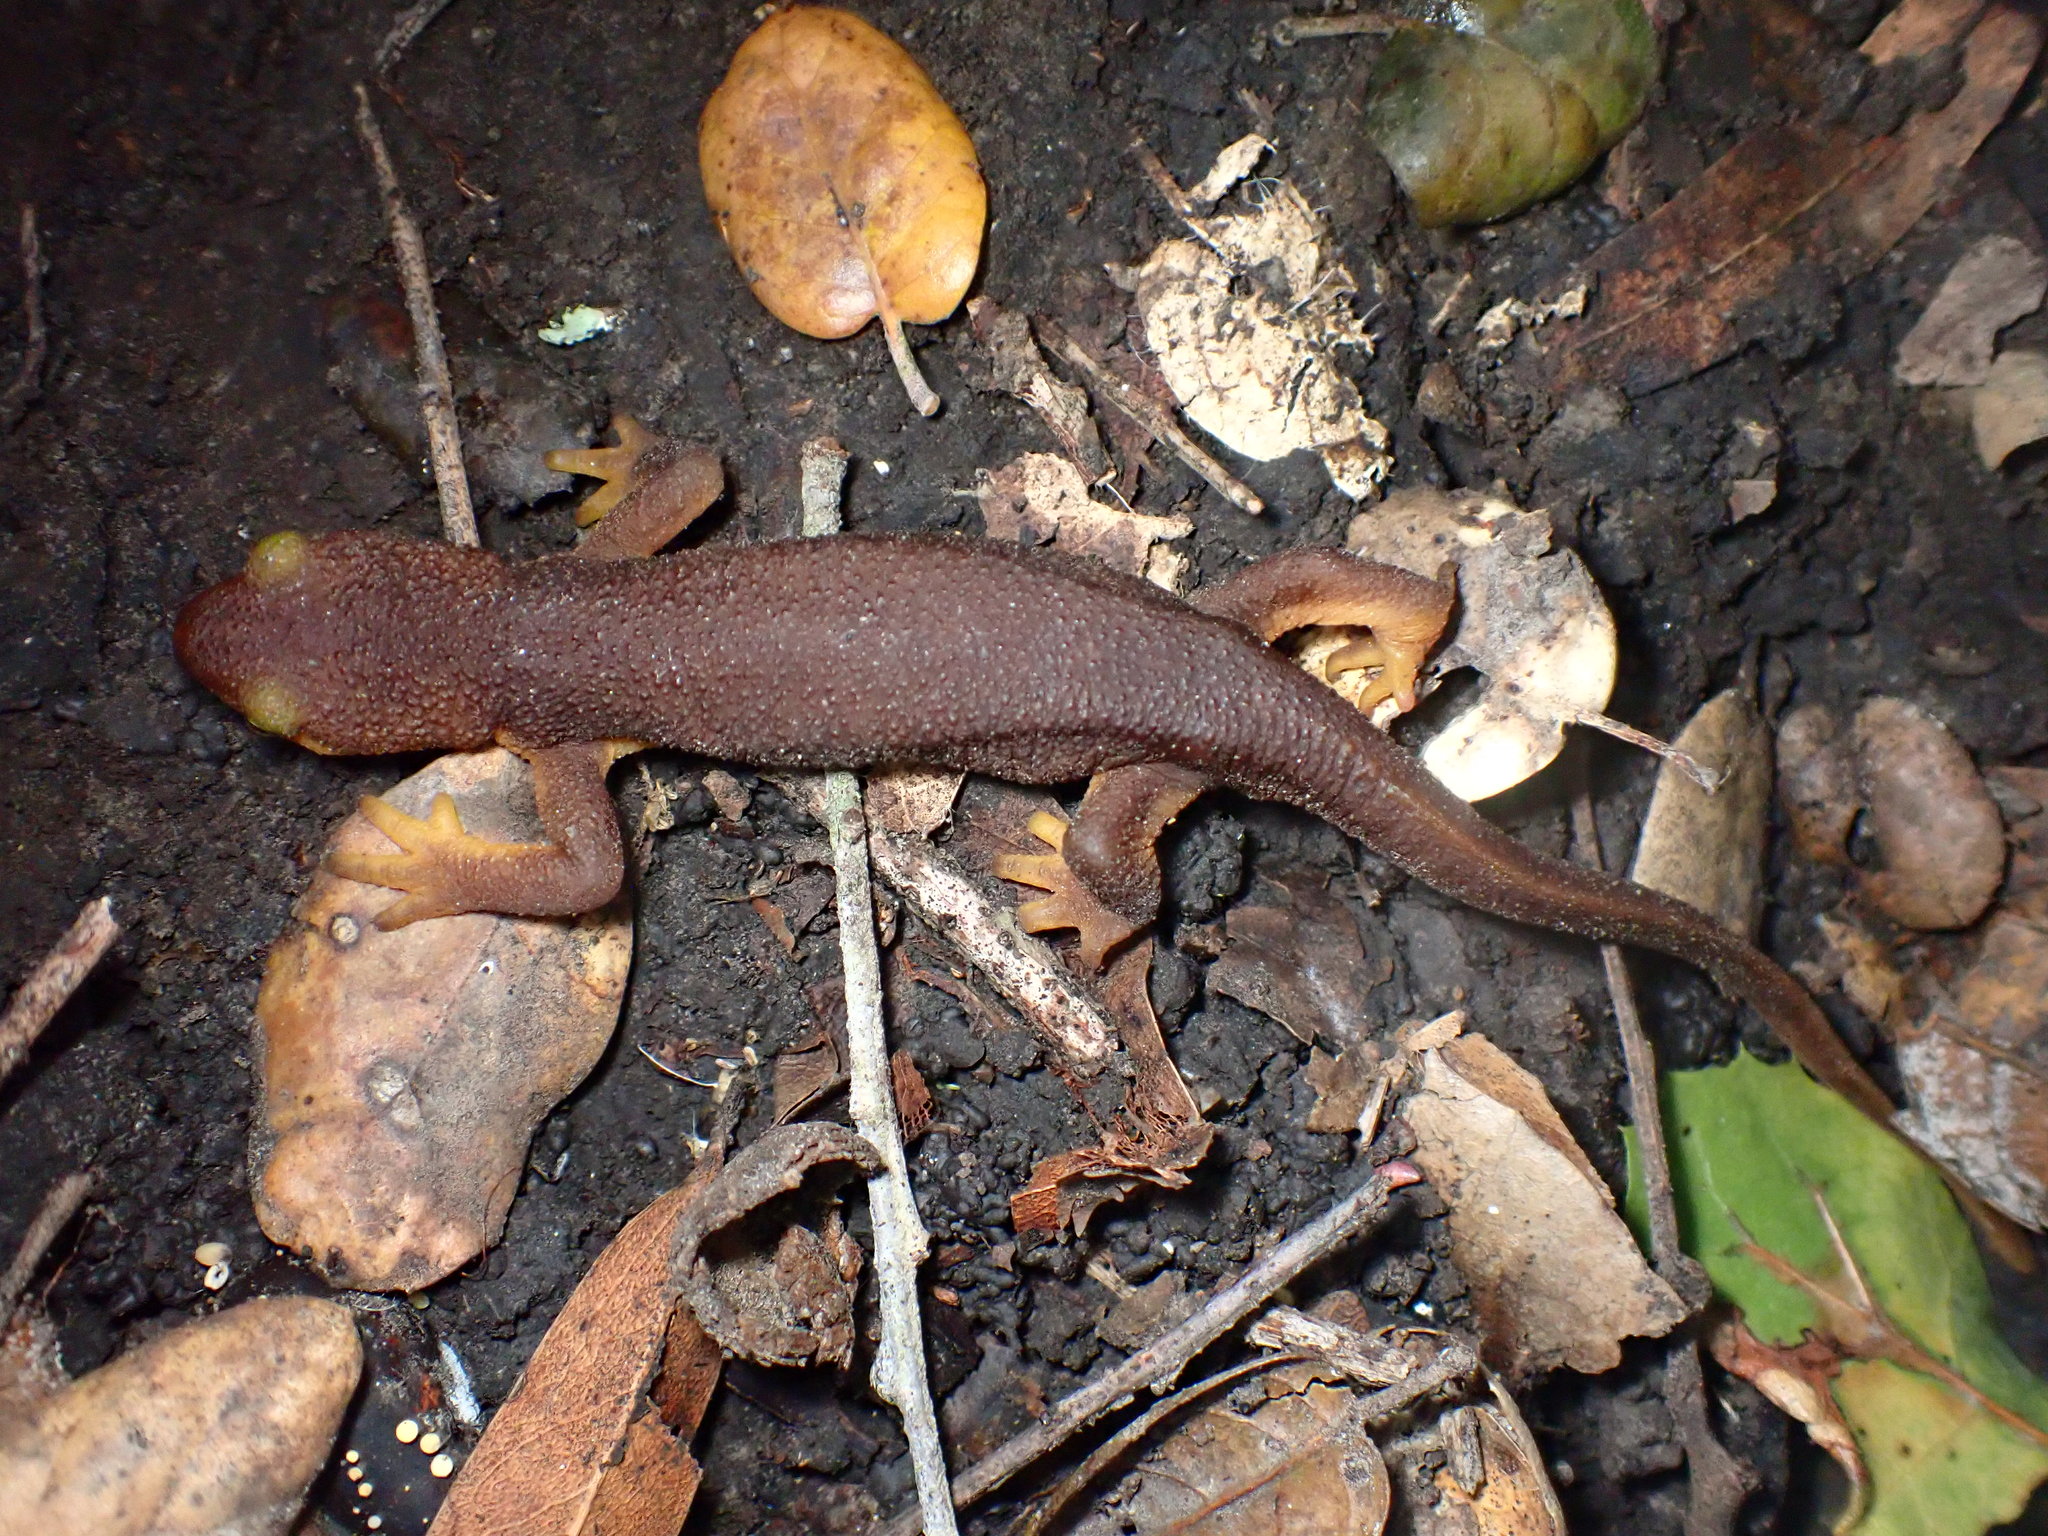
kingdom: Animalia
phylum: Chordata
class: Amphibia
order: Caudata
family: Salamandridae
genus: Taricha
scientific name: Taricha torosa
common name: California newt
